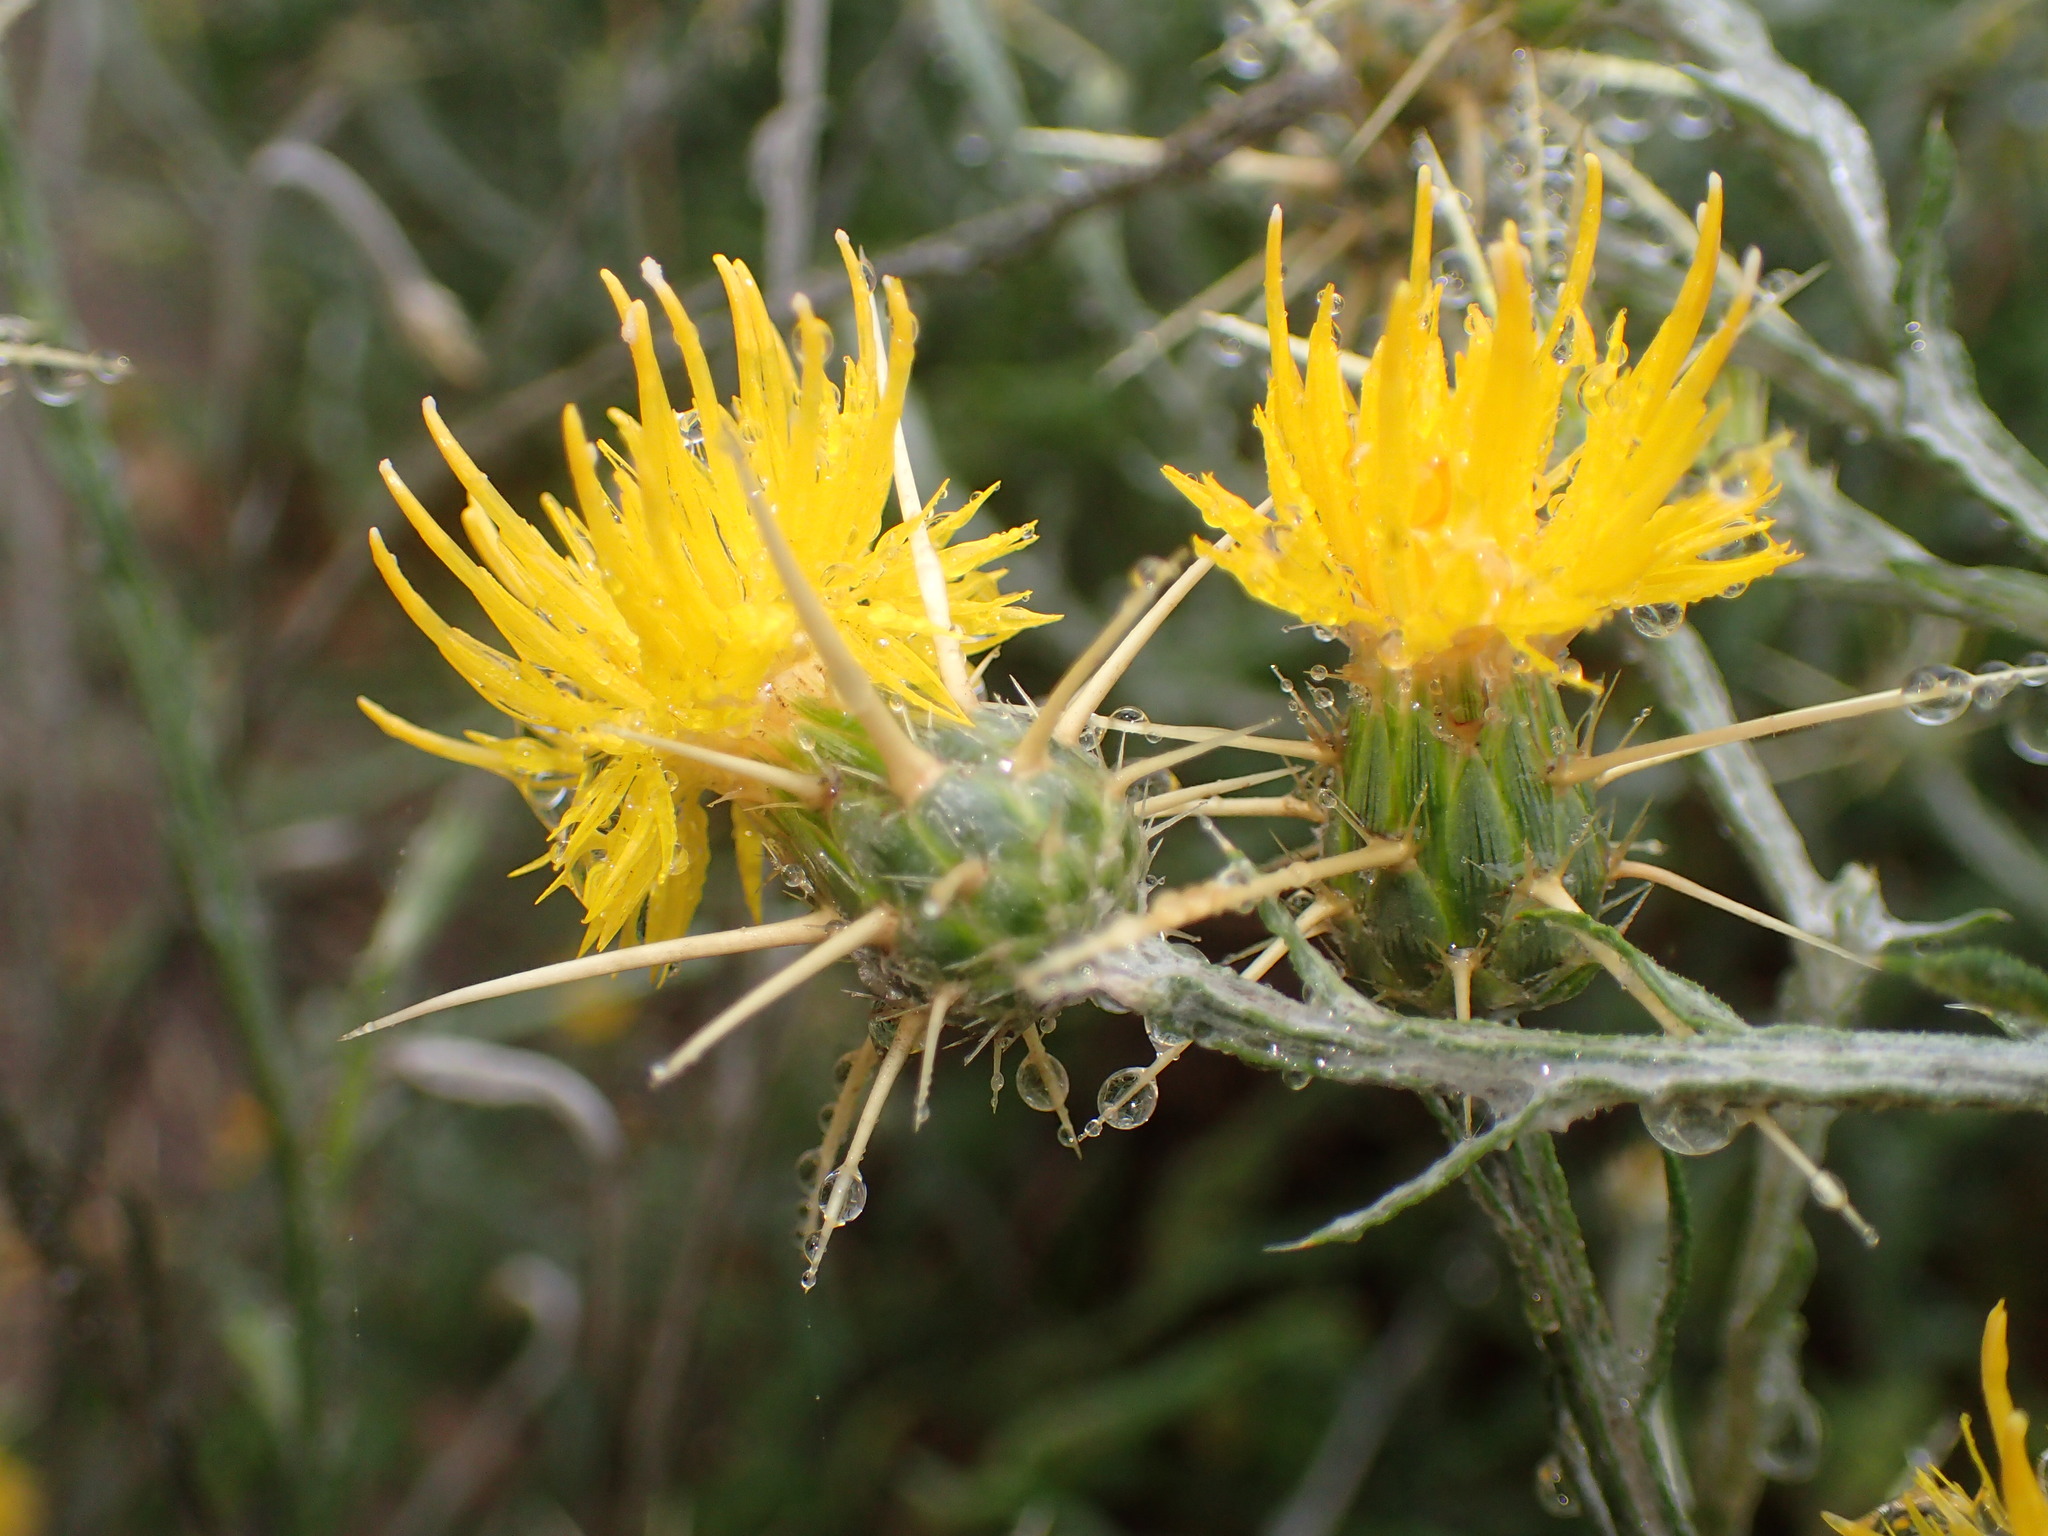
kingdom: Plantae
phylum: Tracheophyta
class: Magnoliopsida
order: Asterales
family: Asteraceae
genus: Centaurea
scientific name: Centaurea solstitialis
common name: Yellow star-thistle
